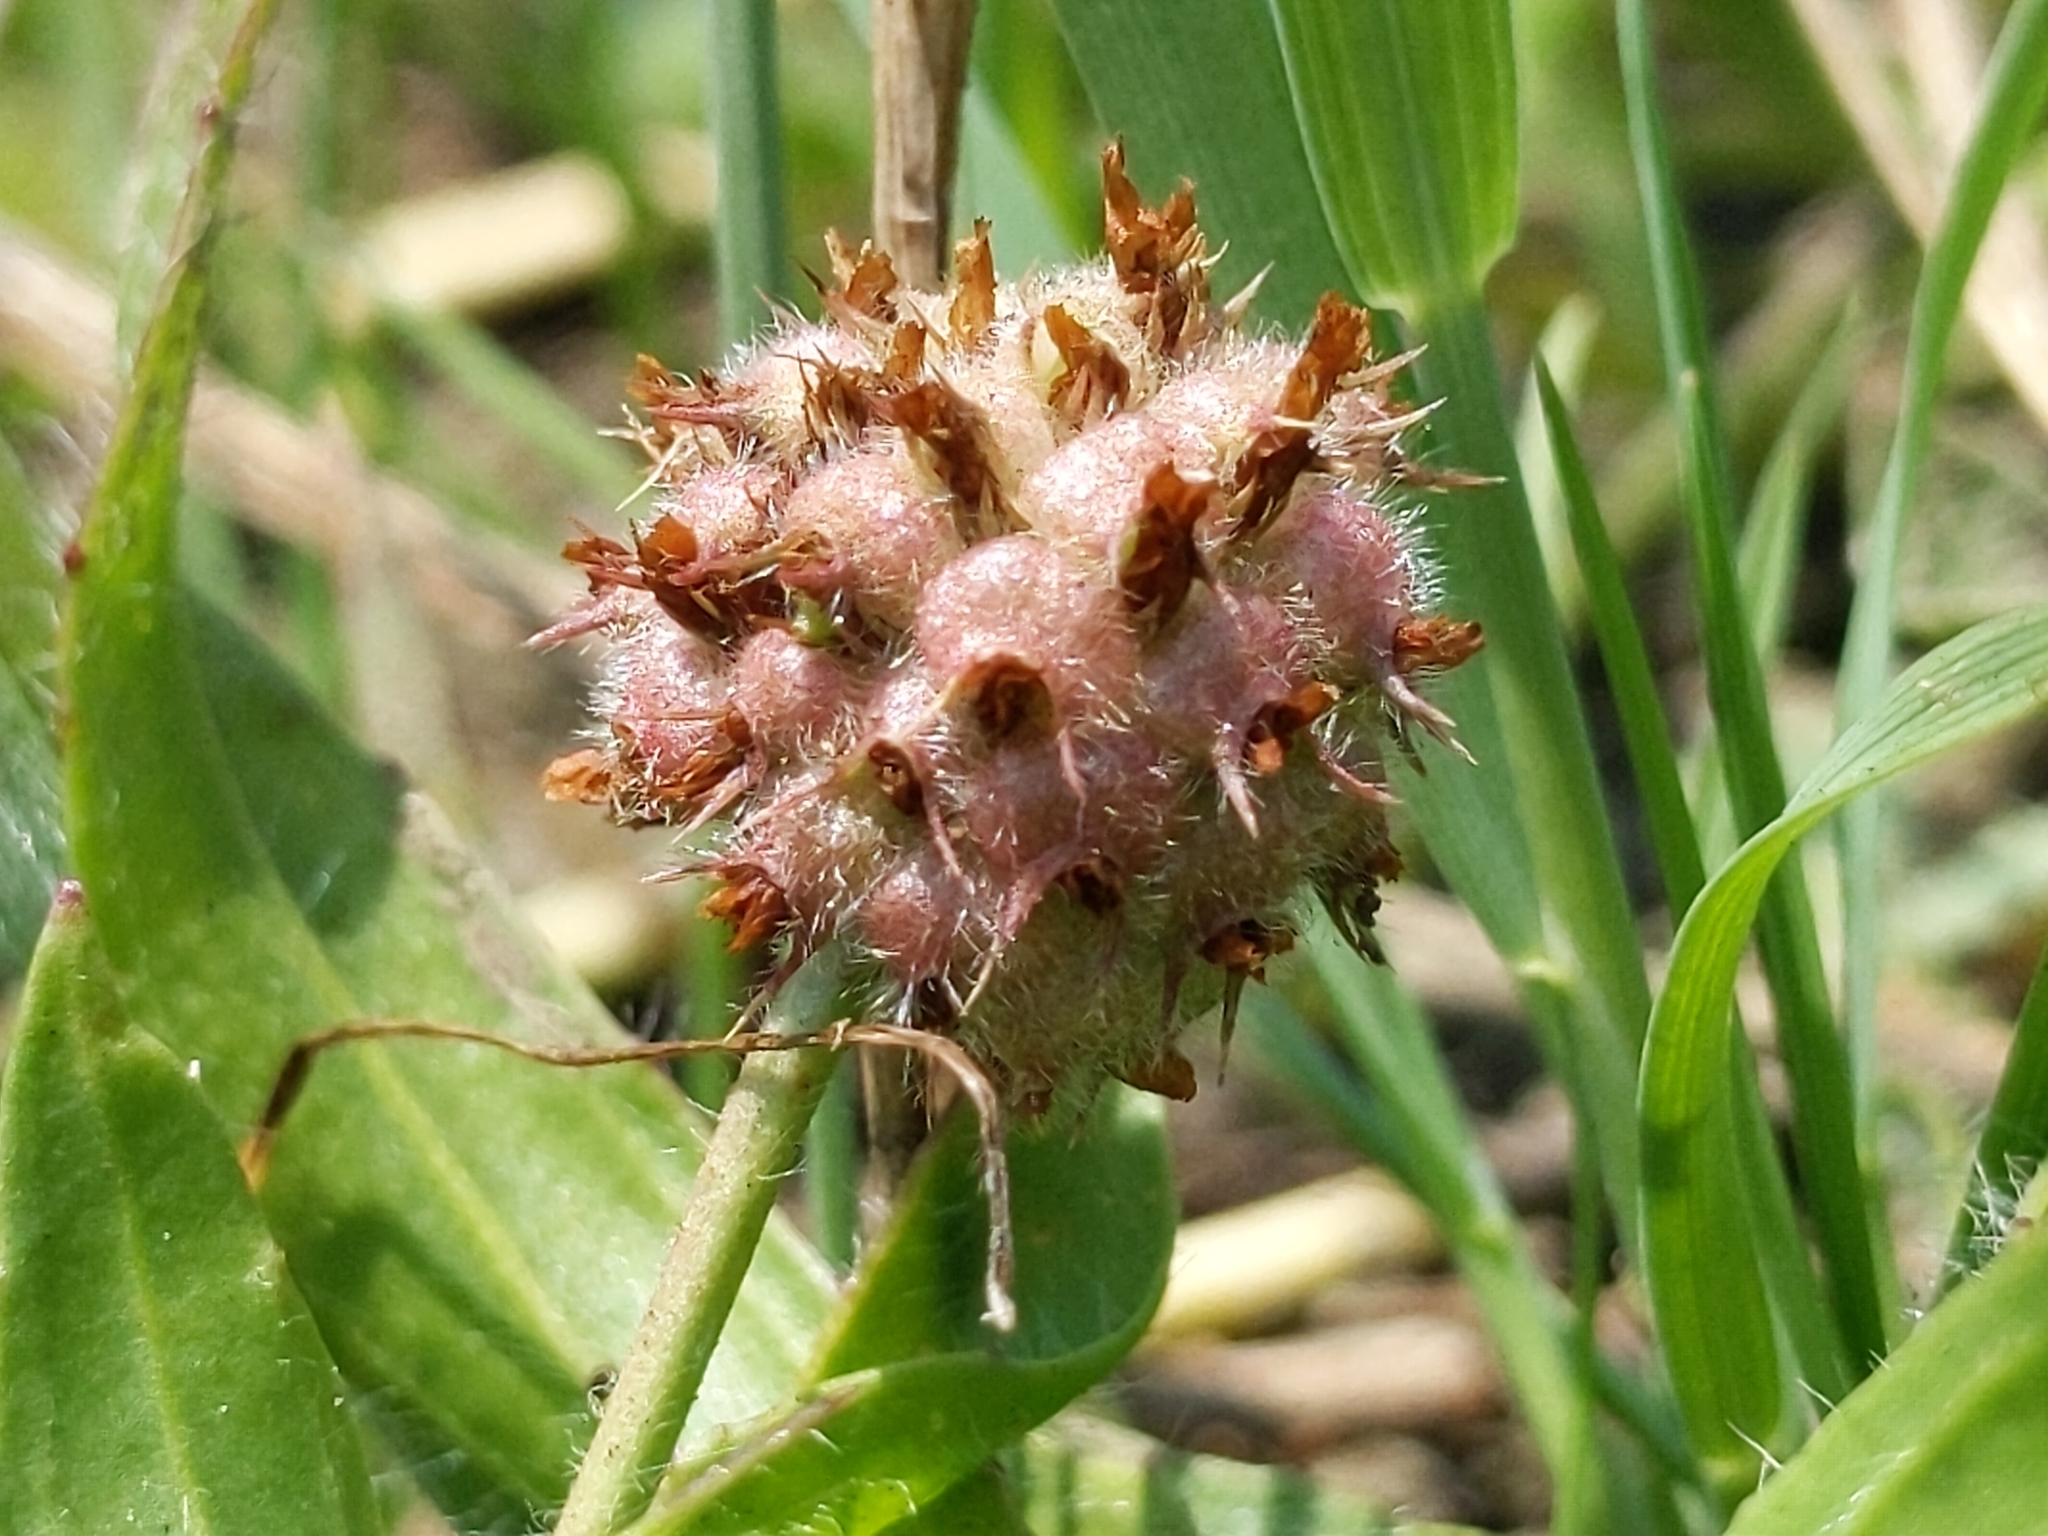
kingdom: Plantae
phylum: Tracheophyta
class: Magnoliopsida
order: Fabales
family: Fabaceae
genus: Trifolium
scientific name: Trifolium fragiferum
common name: Strawberry clover
